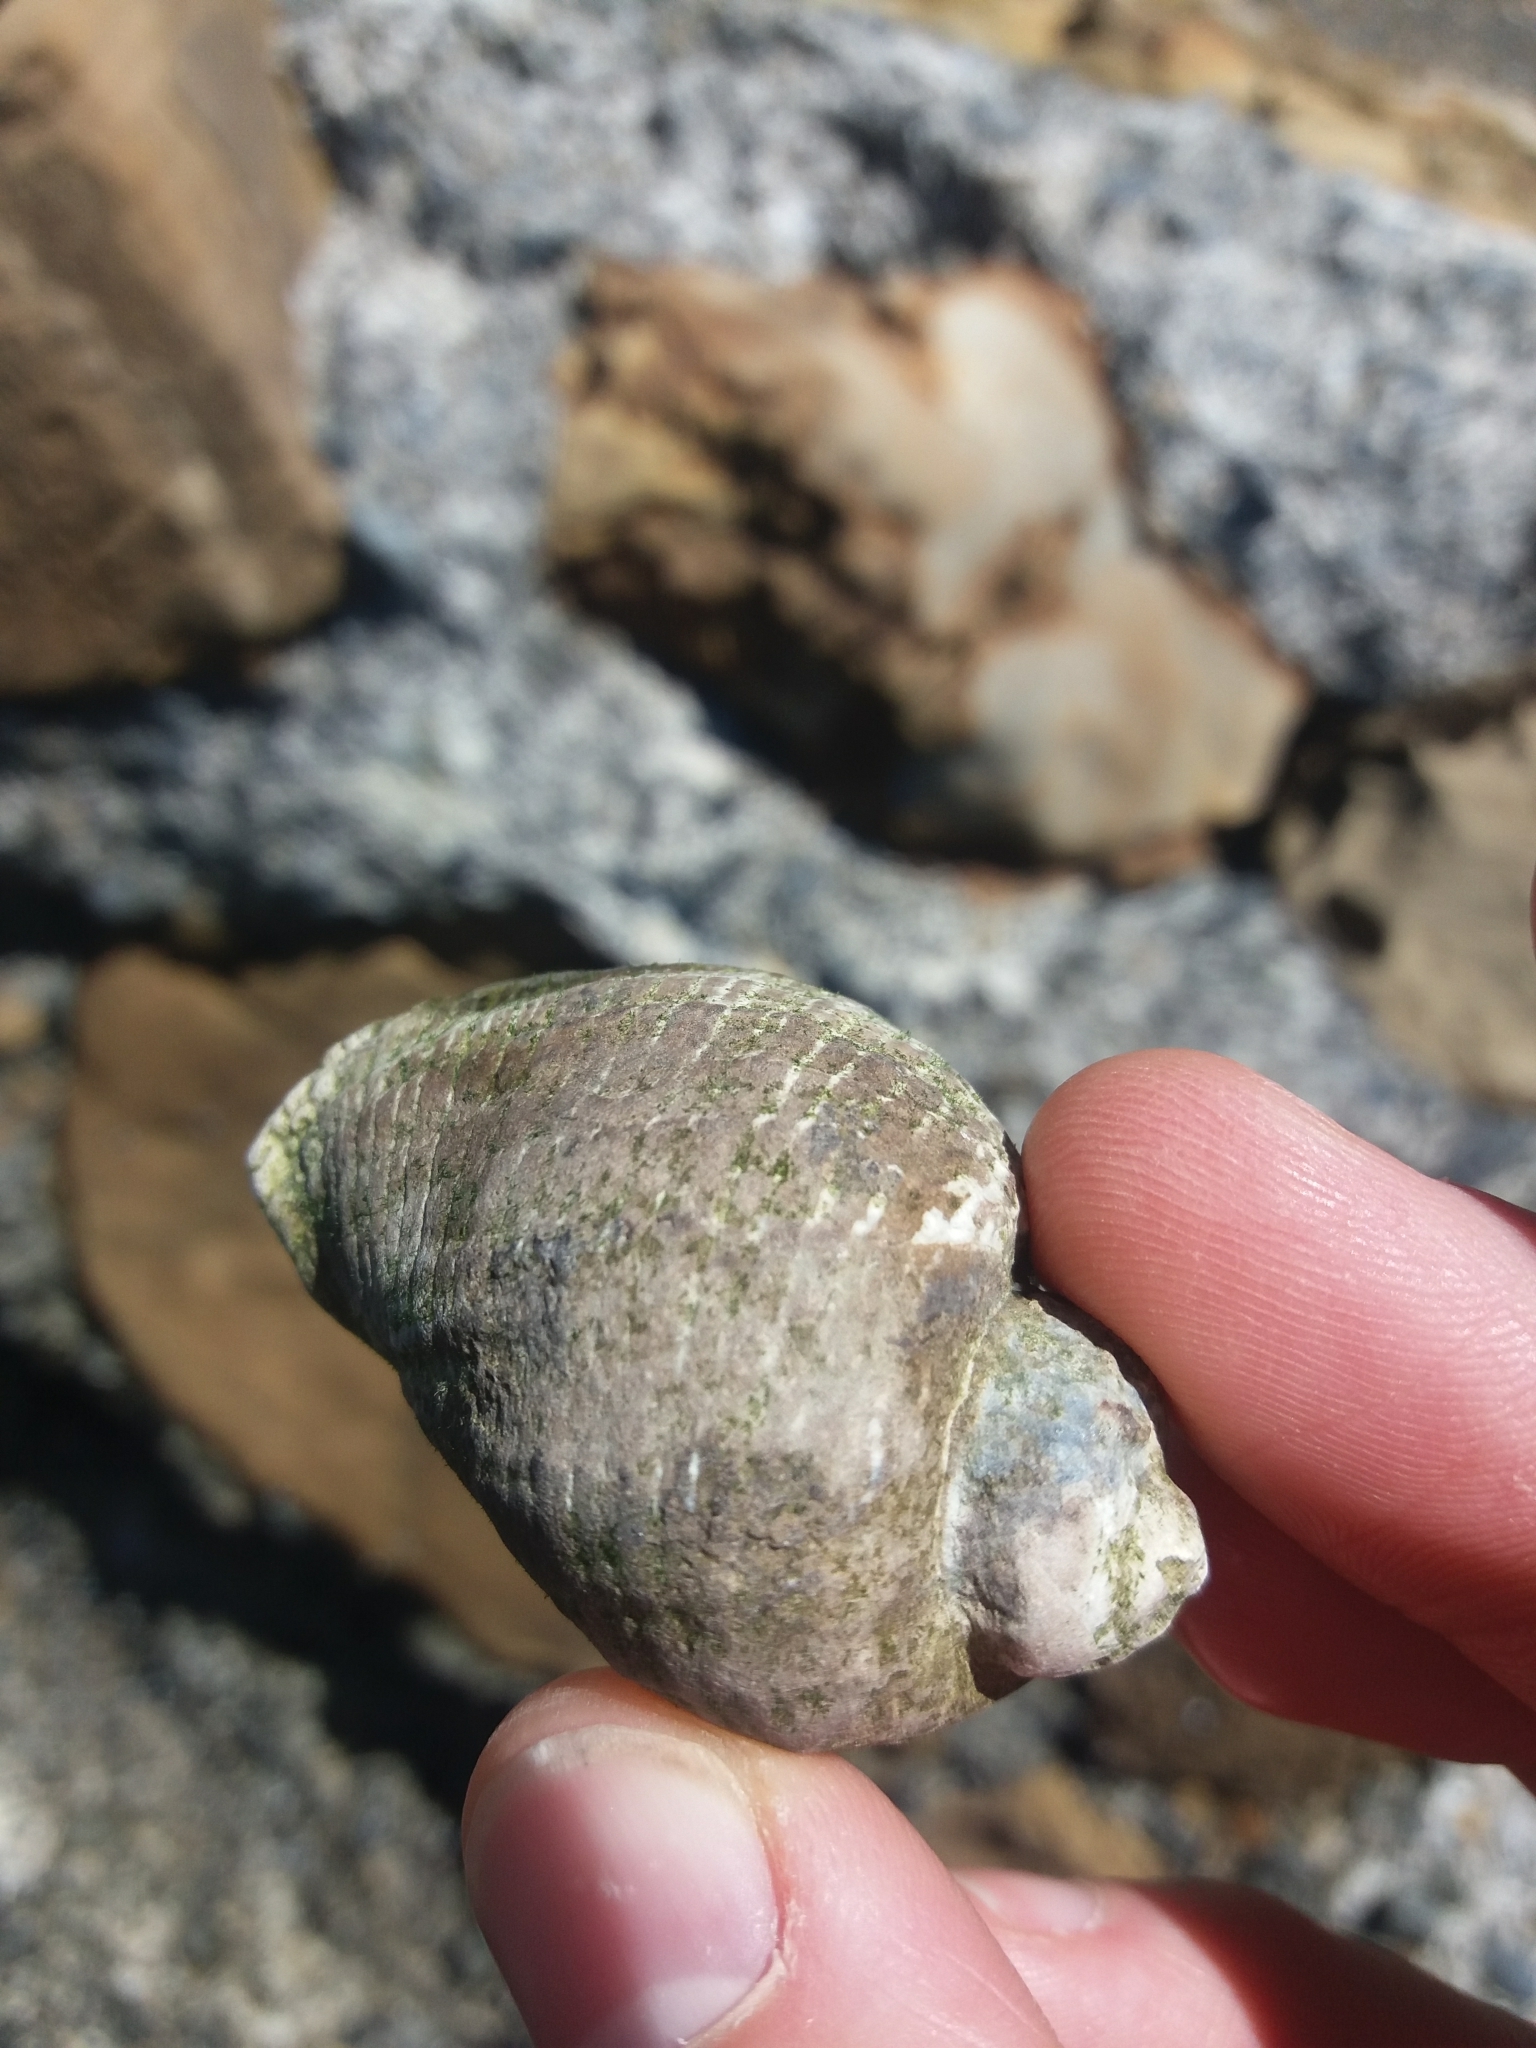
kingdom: Animalia
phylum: Mollusca
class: Gastropoda
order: Neogastropoda
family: Muricidae
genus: Haustrum
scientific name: Haustrum haustorium
